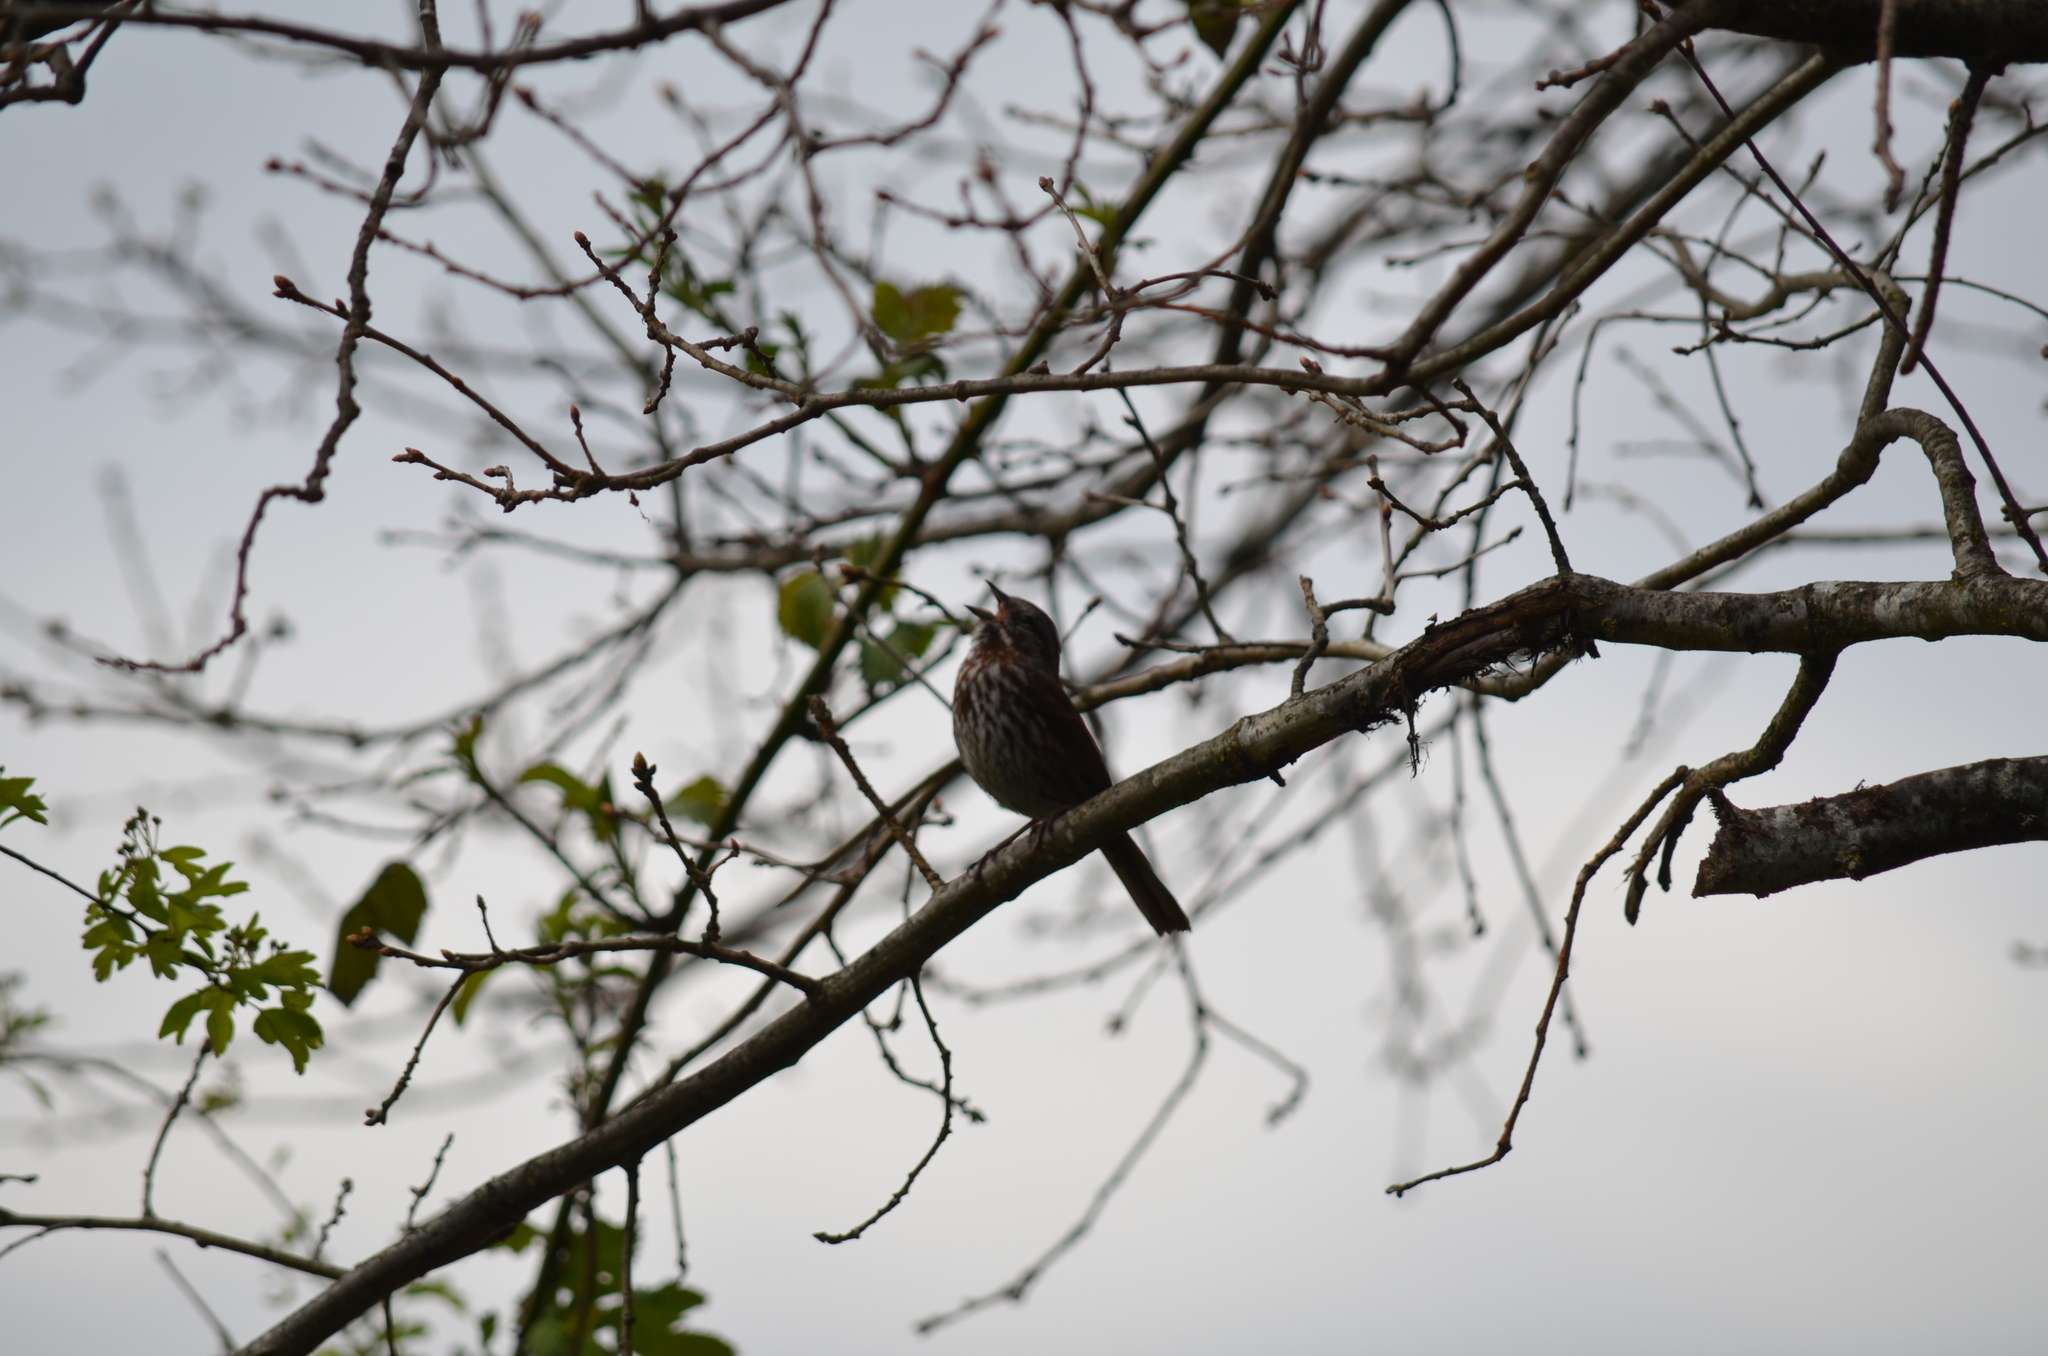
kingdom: Animalia
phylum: Chordata
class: Aves
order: Passeriformes
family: Passerellidae
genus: Melospiza
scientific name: Melospiza melodia
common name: Song sparrow
